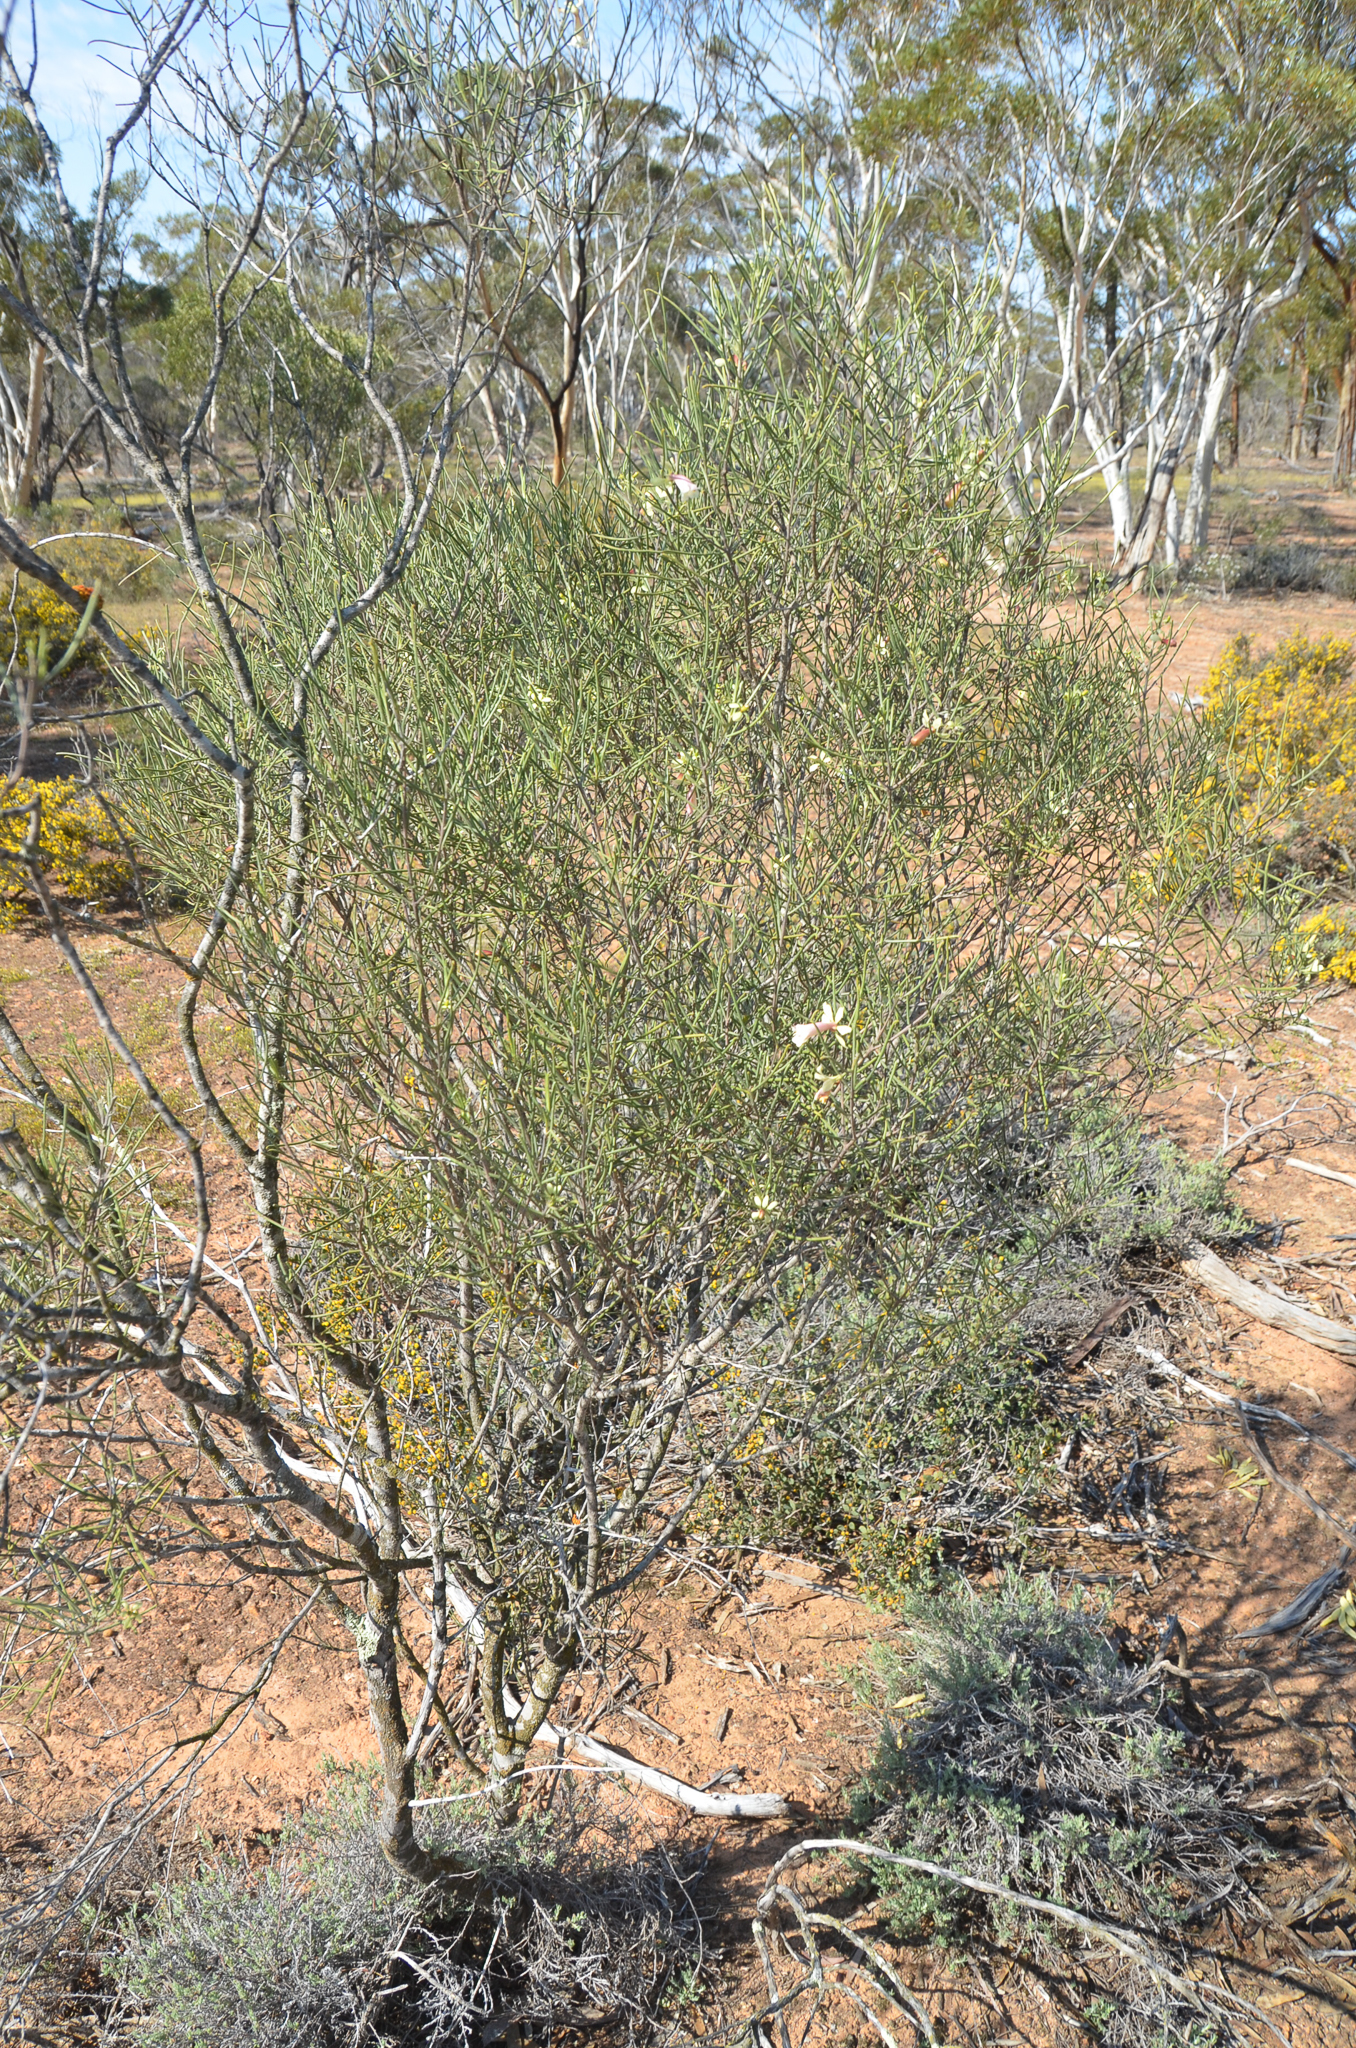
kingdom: Plantae
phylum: Tracheophyta
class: Magnoliopsida
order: Lamiales
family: Scrophulariaceae
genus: Eremophila
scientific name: Eremophila oppositifolia
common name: Mountain-sandalwood
